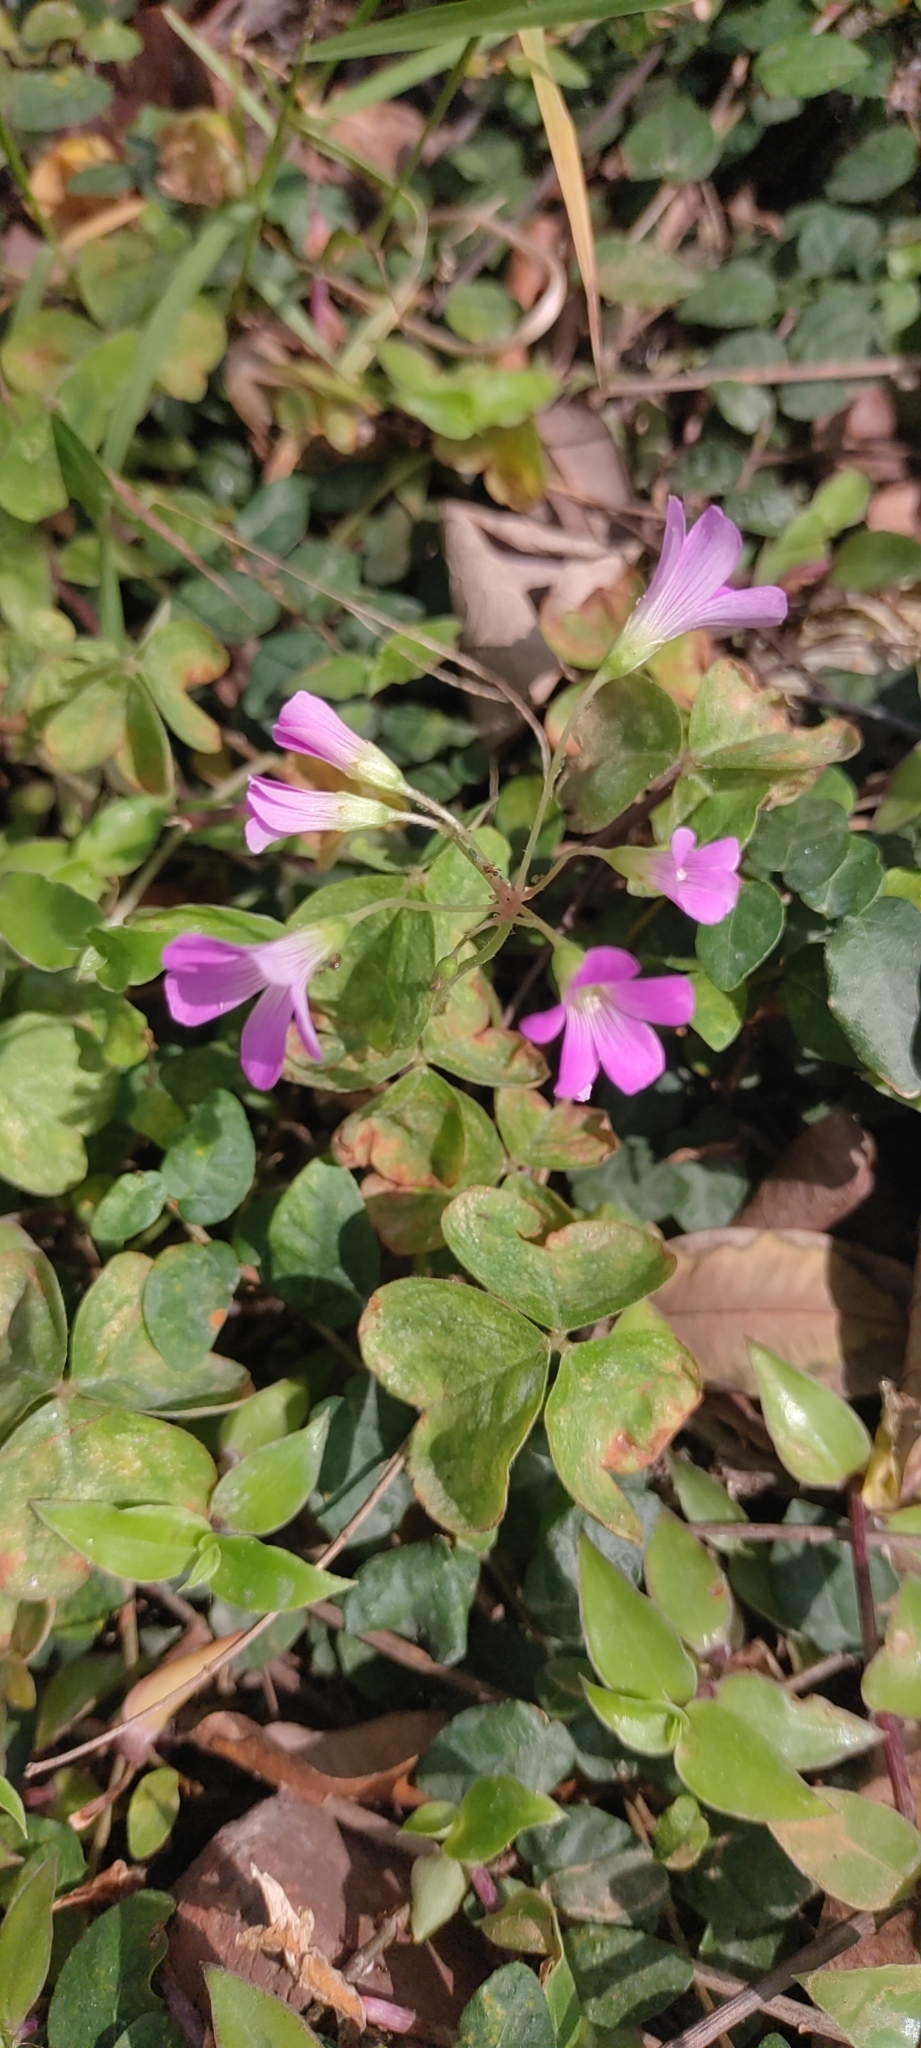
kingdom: Plantae
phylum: Tracheophyta
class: Magnoliopsida
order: Oxalidales
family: Oxalidaceae
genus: Oxalis
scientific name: Oxalis debilis
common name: Large-flowered pink-sorrel
